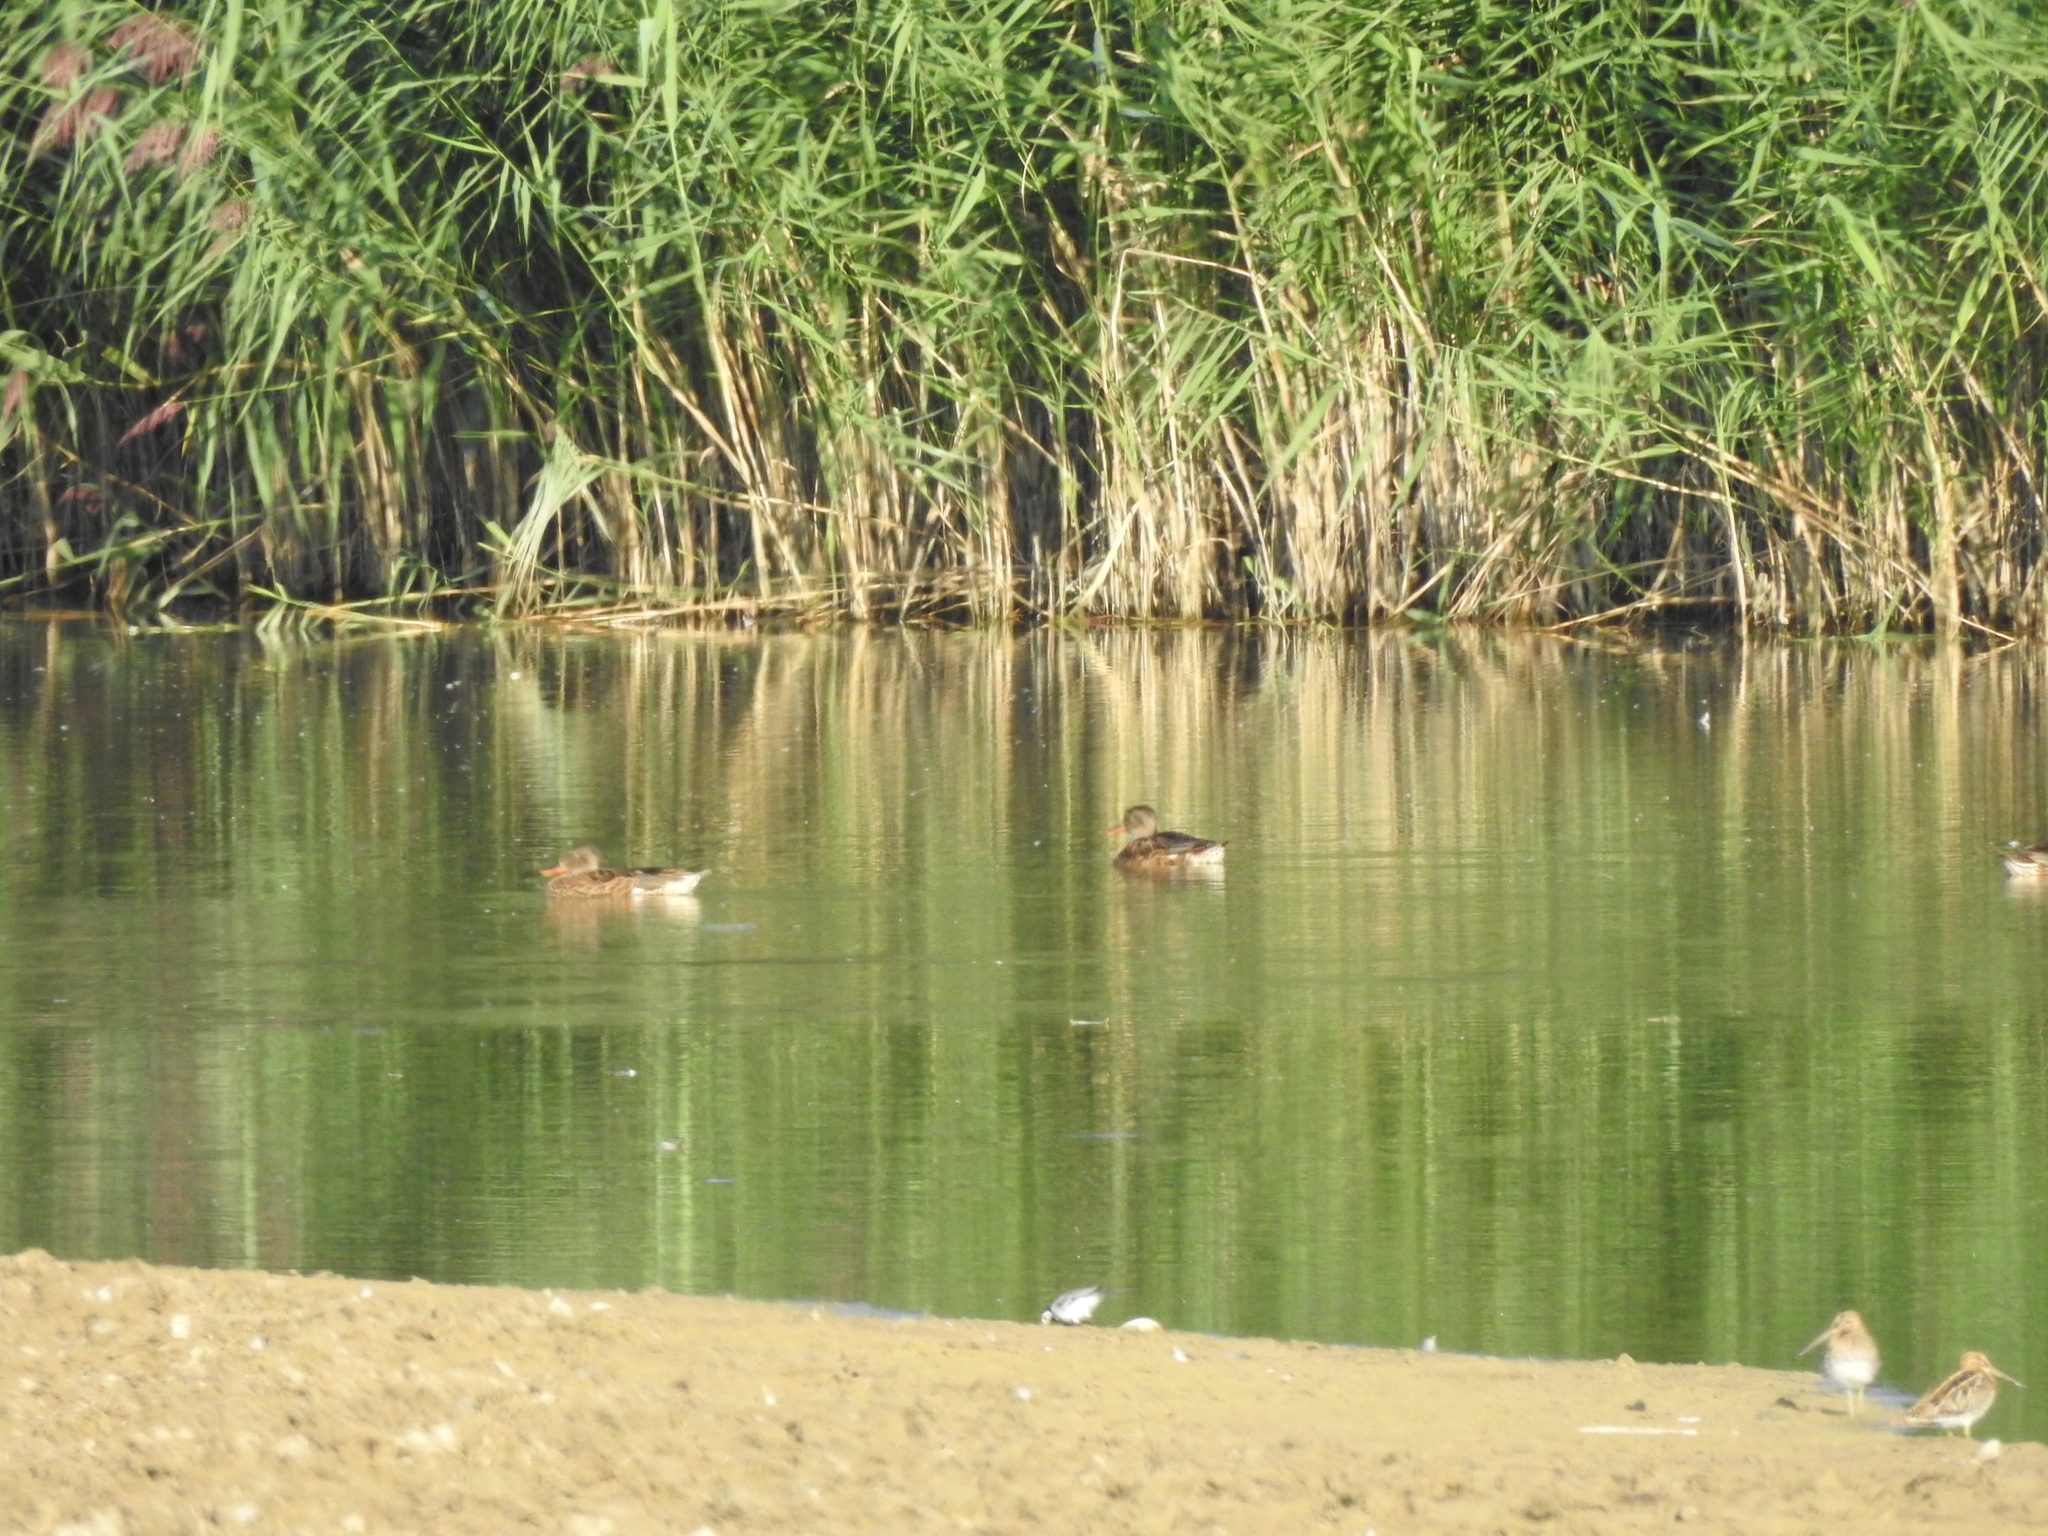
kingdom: Animalia
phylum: Chordata
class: Aves
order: Anseriformes
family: Anatidae
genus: Mareca
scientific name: Mareca strepera
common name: Gadwall
